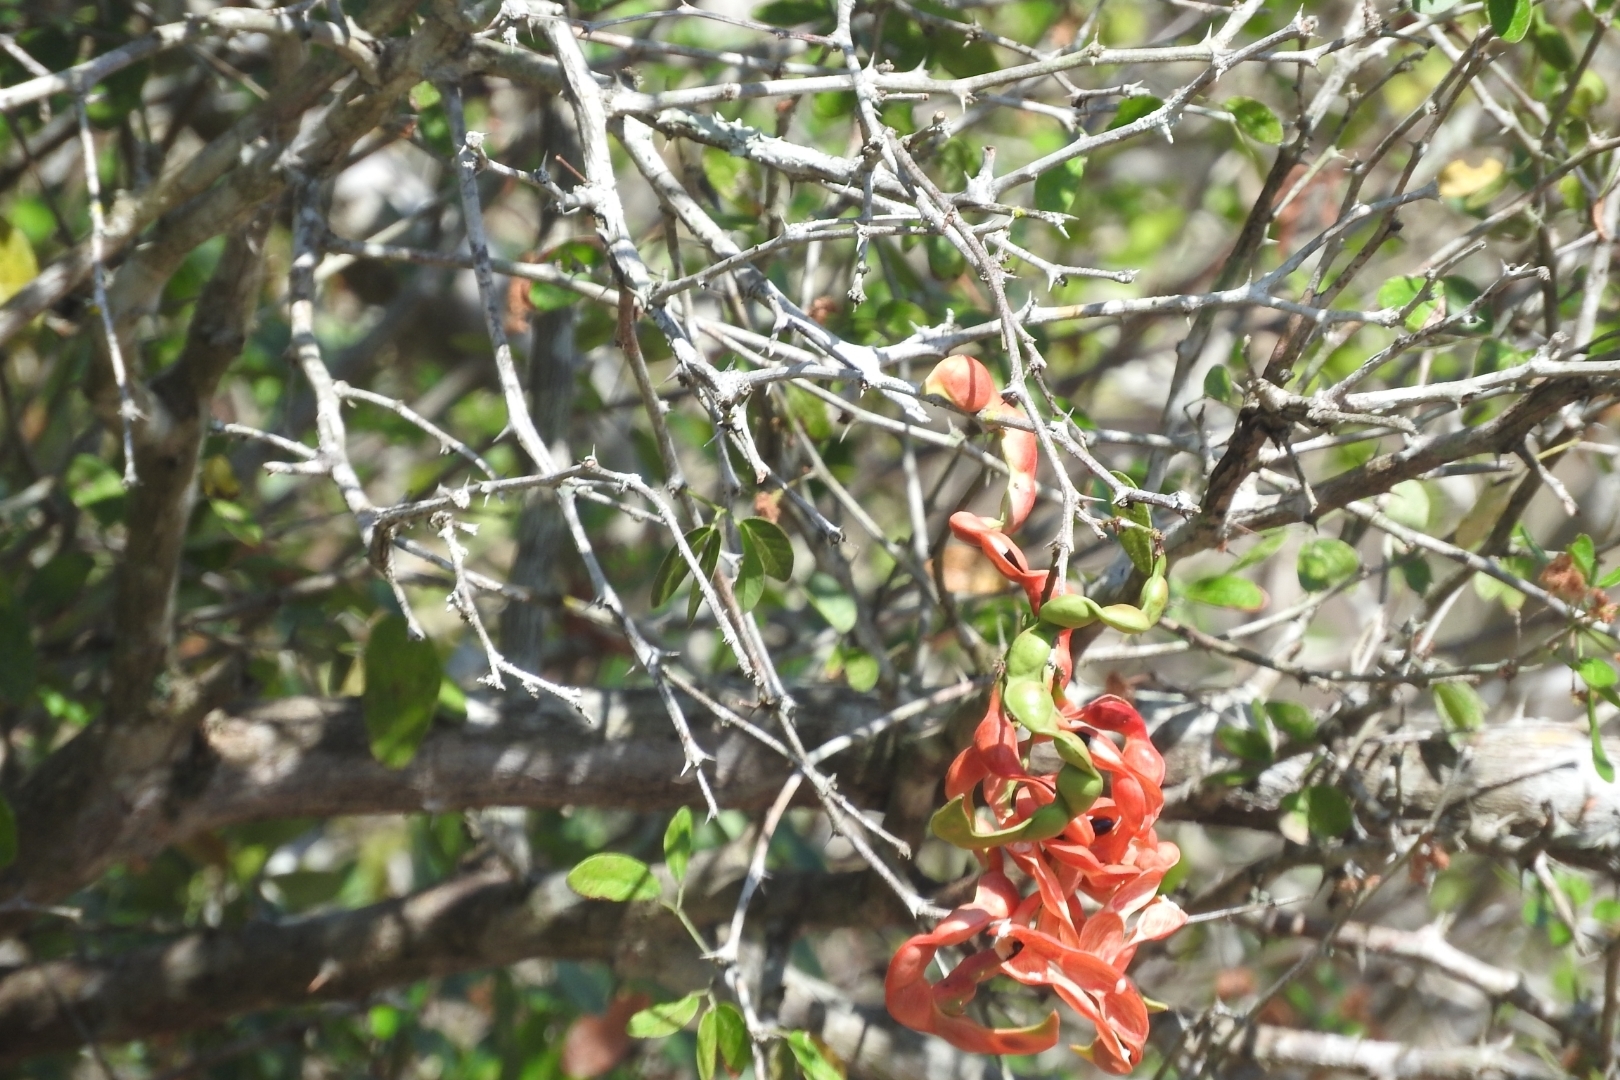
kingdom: Plantae
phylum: Tracheophyta
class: Magnoliopsida
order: Fabales
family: Fabaceae
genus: Pithecellobium
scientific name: Pithecellobium dulce
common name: Monkeypod
